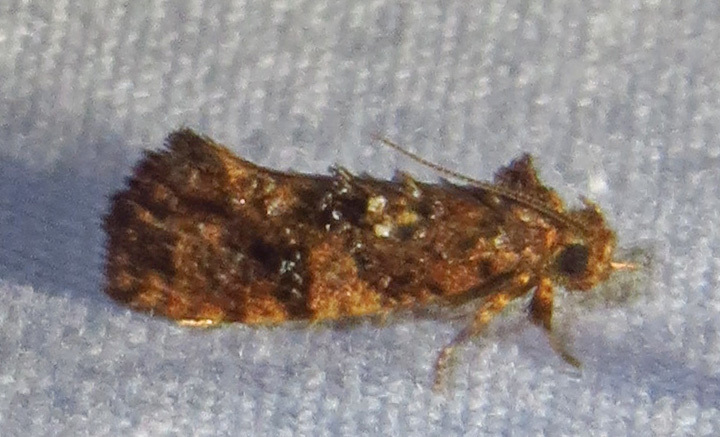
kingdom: Animalia
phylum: Arthropoda
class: Insecta
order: Lepidoptera
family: Tineidae
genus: Acrolophus
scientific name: Acrolophus cressoni
